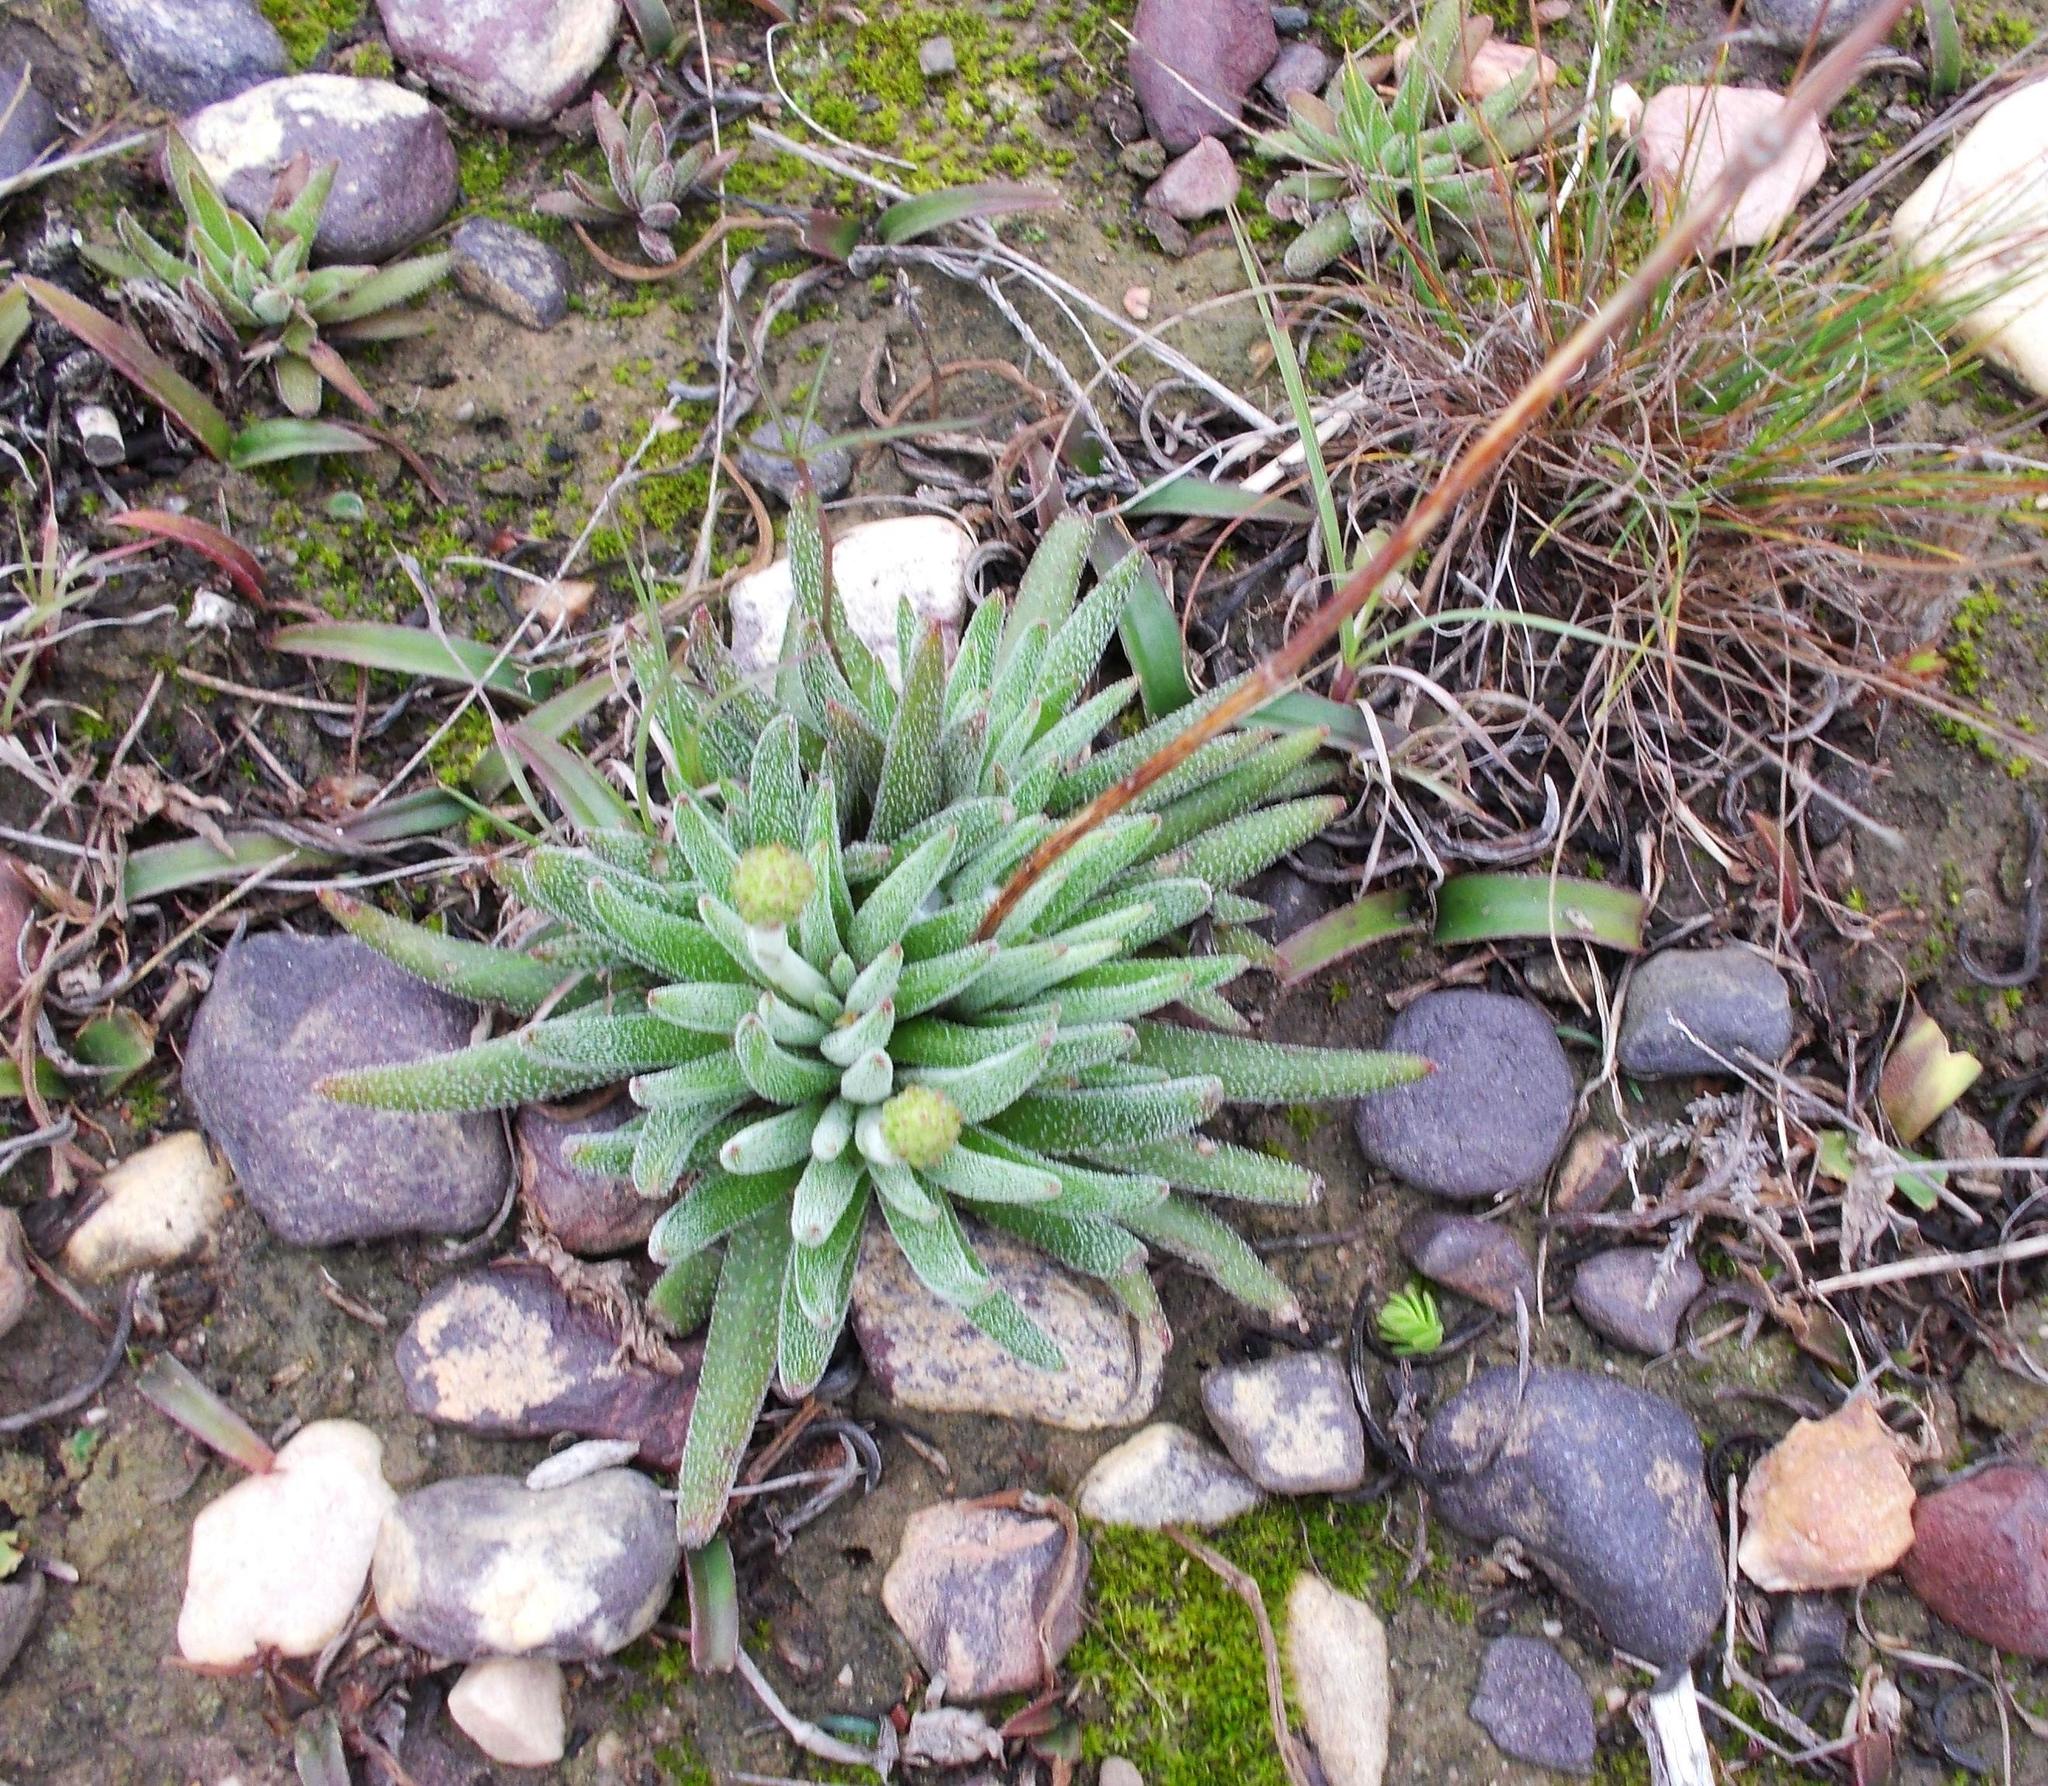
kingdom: Plantae
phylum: Tracheophyta
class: Magnoliopsida
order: Saxifragales
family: Crassulaceae
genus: Crassula
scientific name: Crassula nudicaulis
